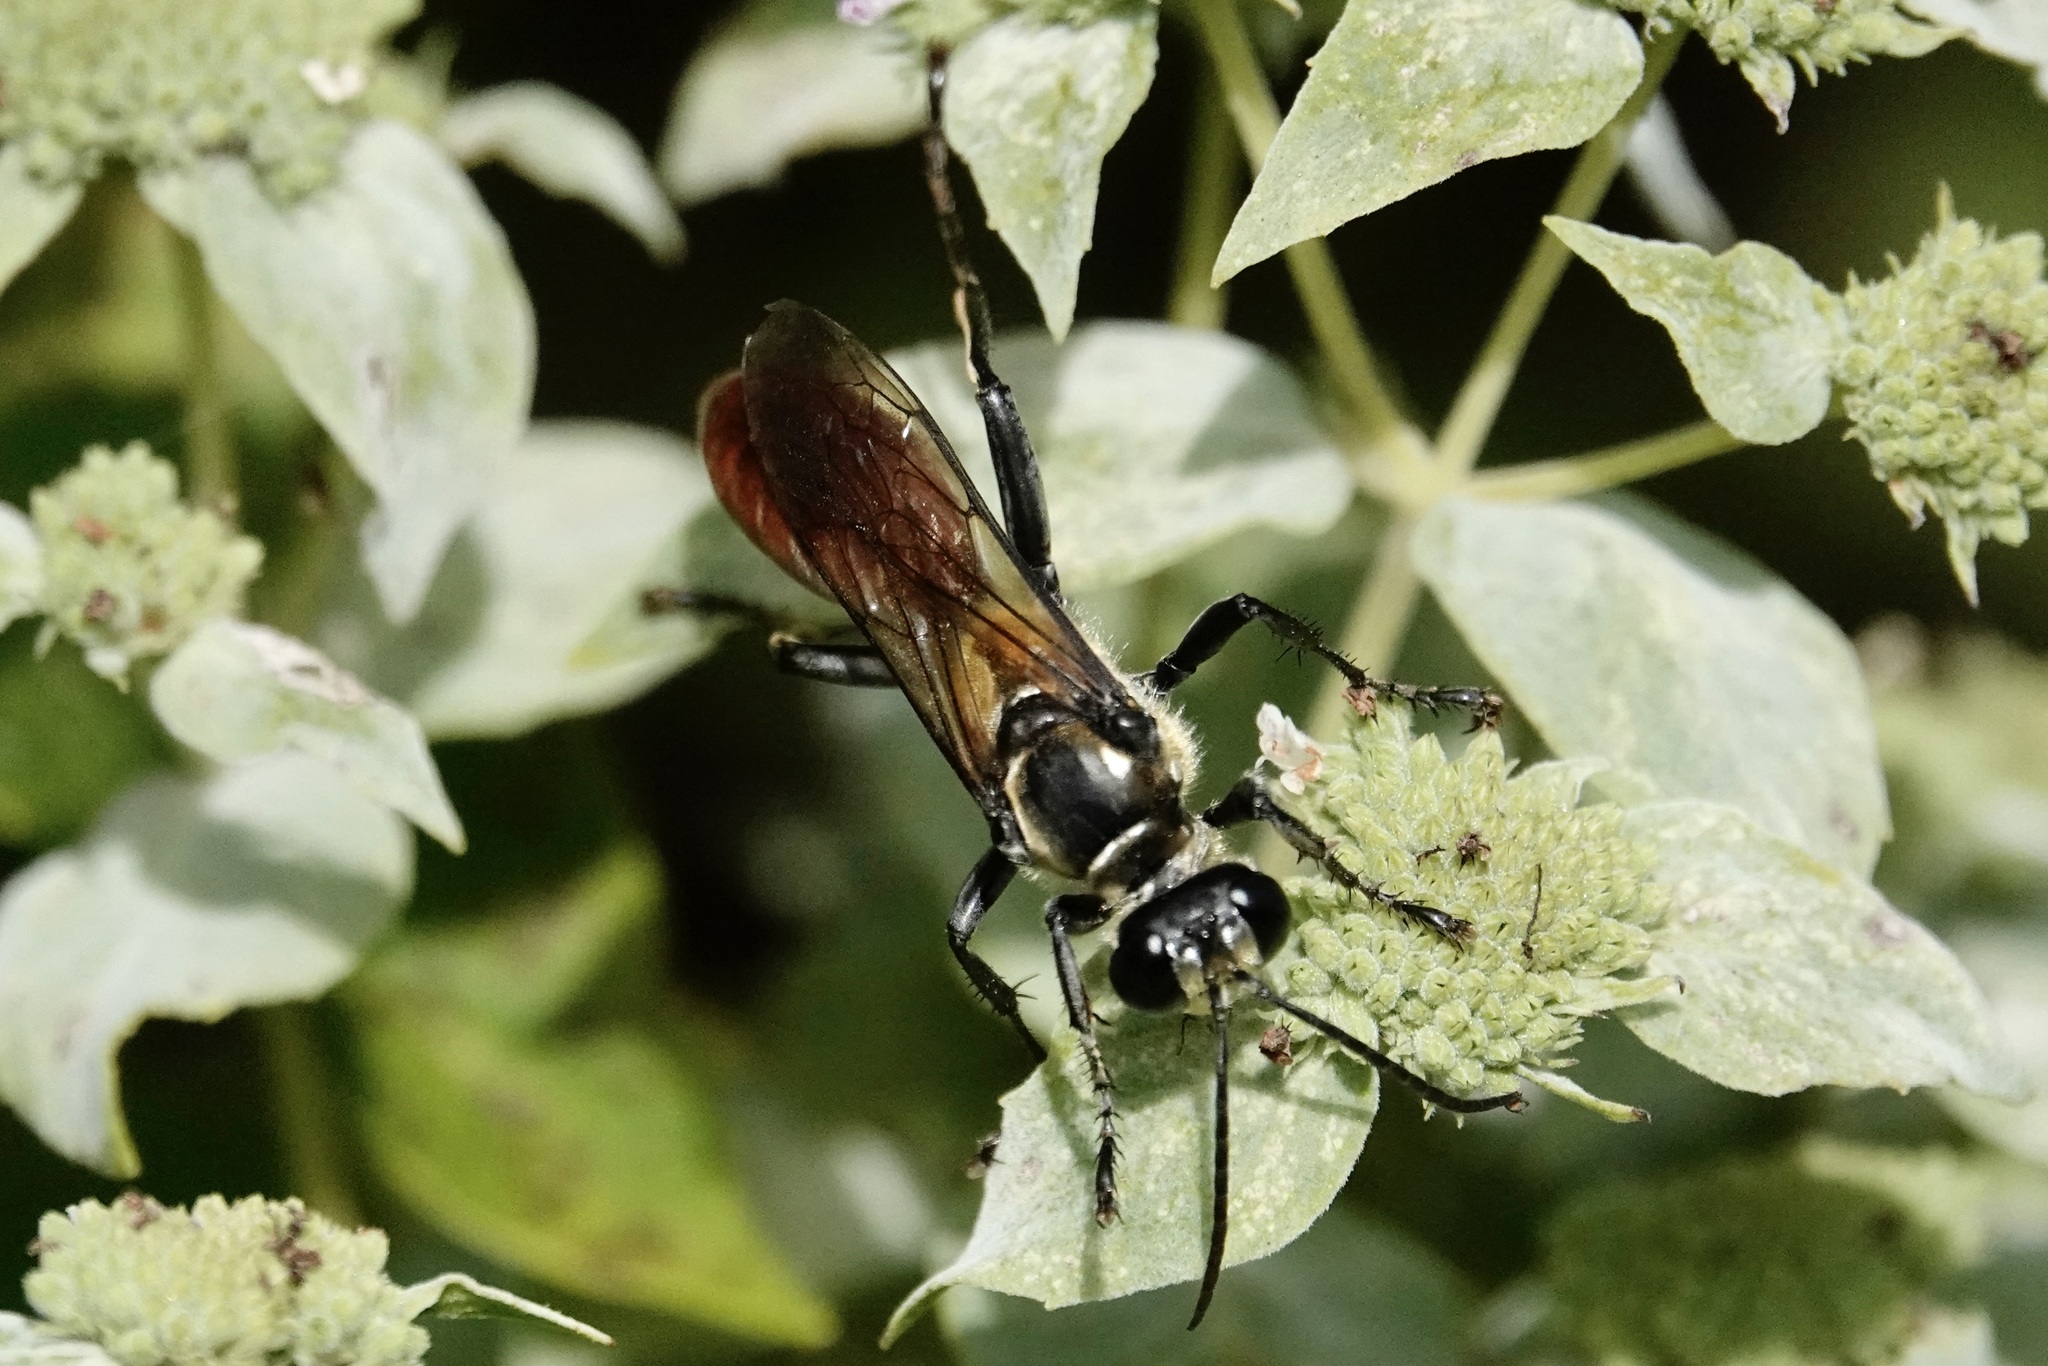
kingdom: Animalia
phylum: Arthropoda
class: Insecta
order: Hymenoptera
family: Sphecidae
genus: Sphex
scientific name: Sphex habenus
